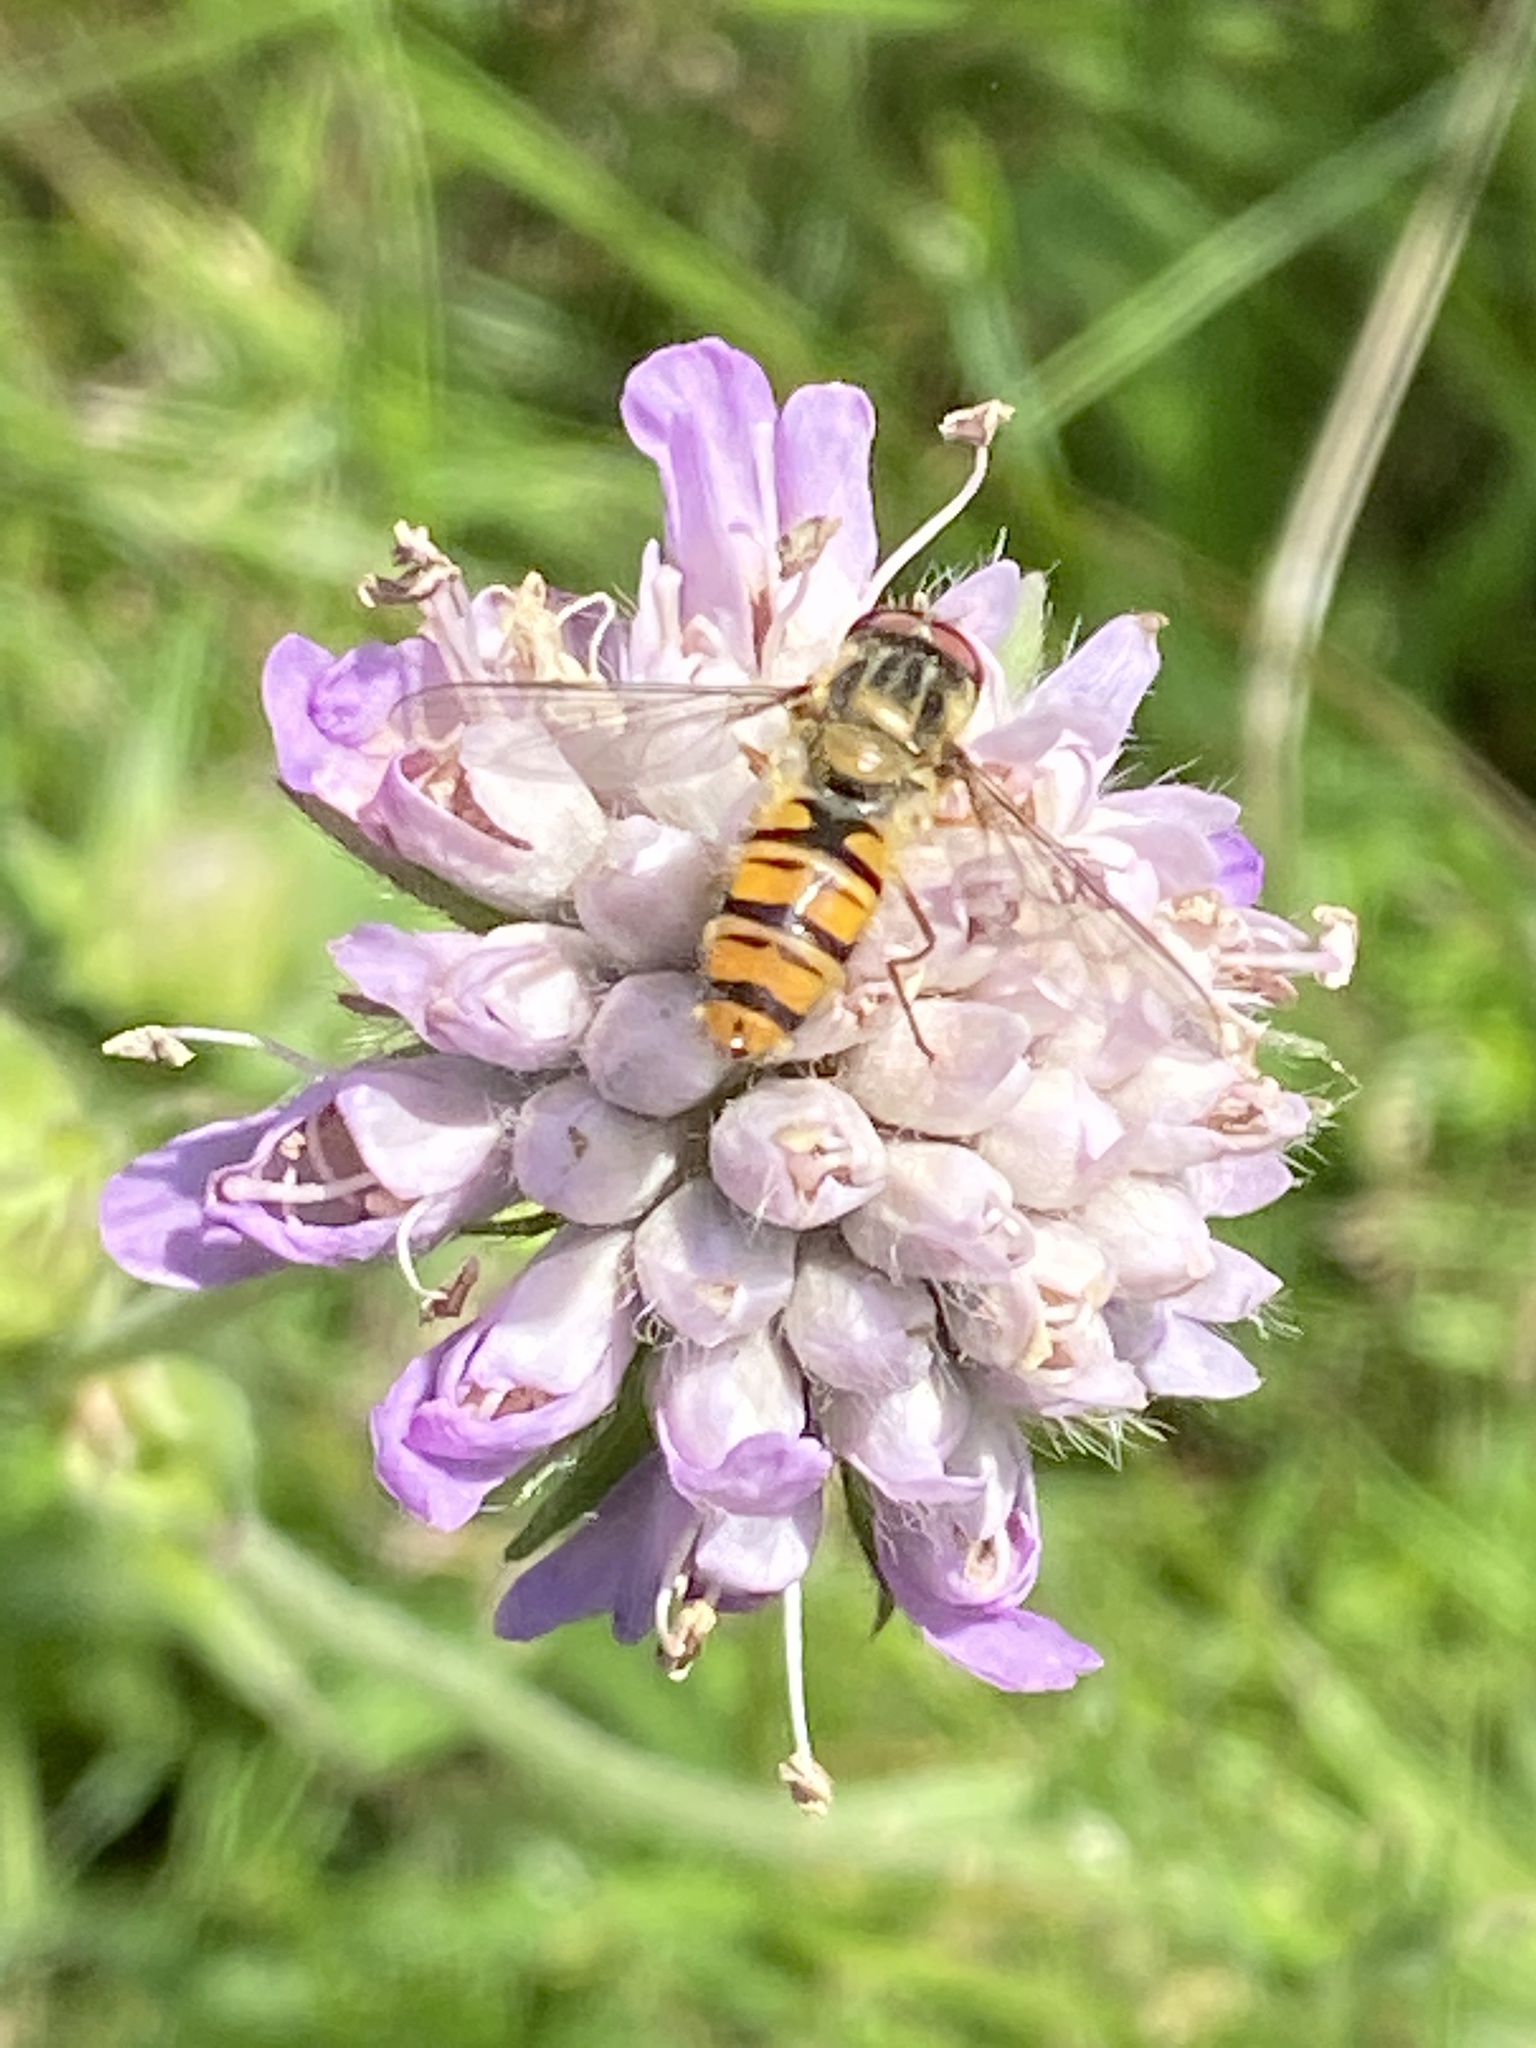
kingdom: Animalia
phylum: Arthropoda
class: Insecta
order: Diptera
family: Syrphidae
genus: Episyrphus
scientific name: Episyrphus balteatus
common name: Marmalade hoverfly
